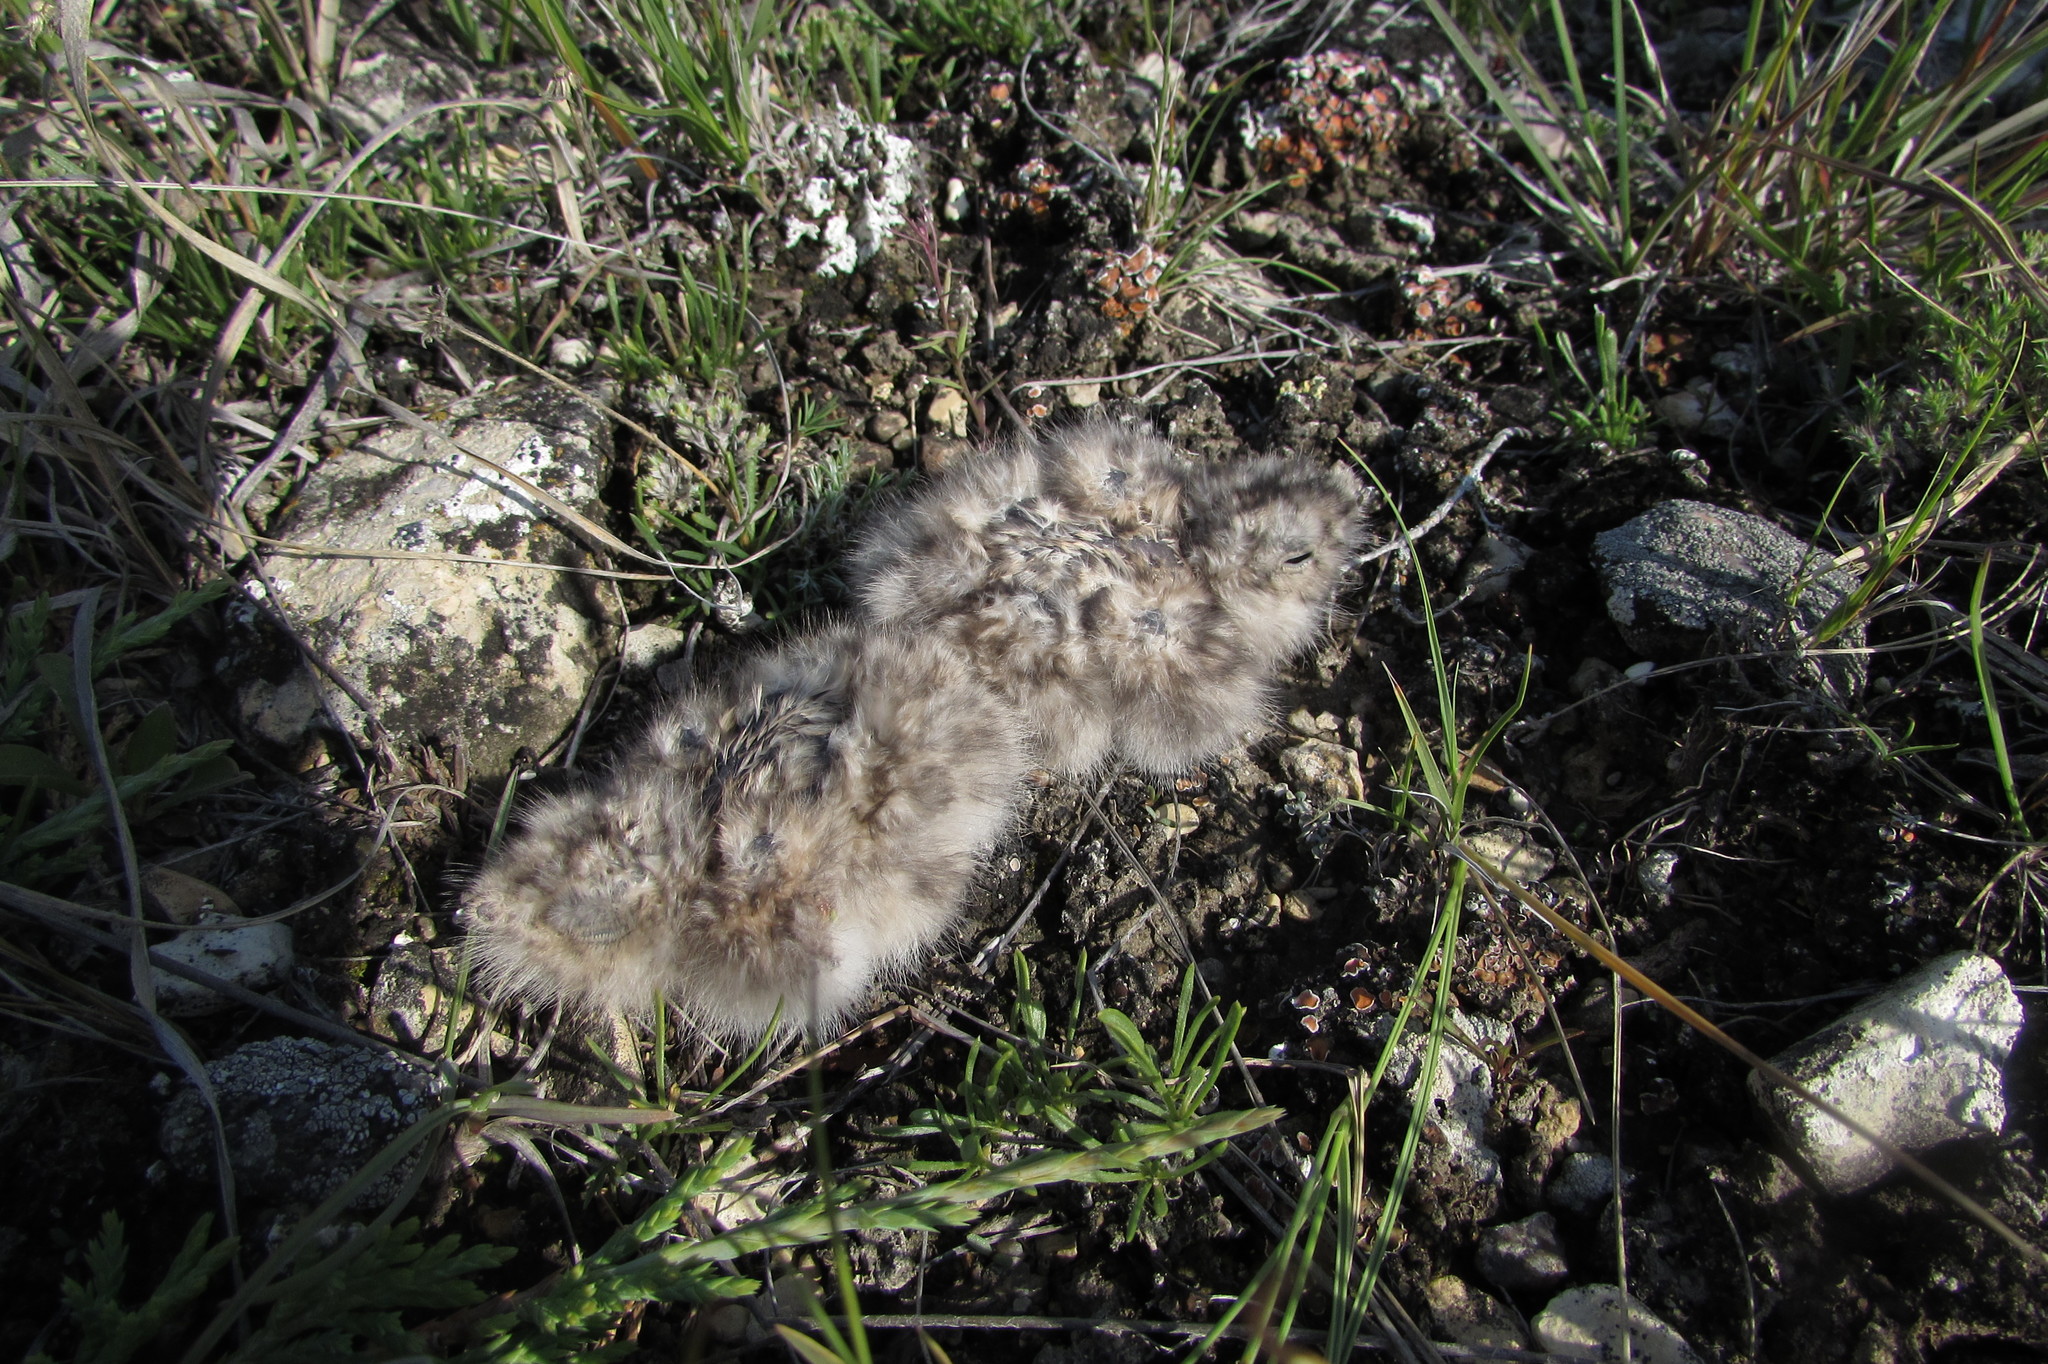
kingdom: Animalia
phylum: Chordata
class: Aves
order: Caprimulgiformes
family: Caprimulgidae
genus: Chordeiles
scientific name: Chordeiles minor
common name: Common nighthawk
